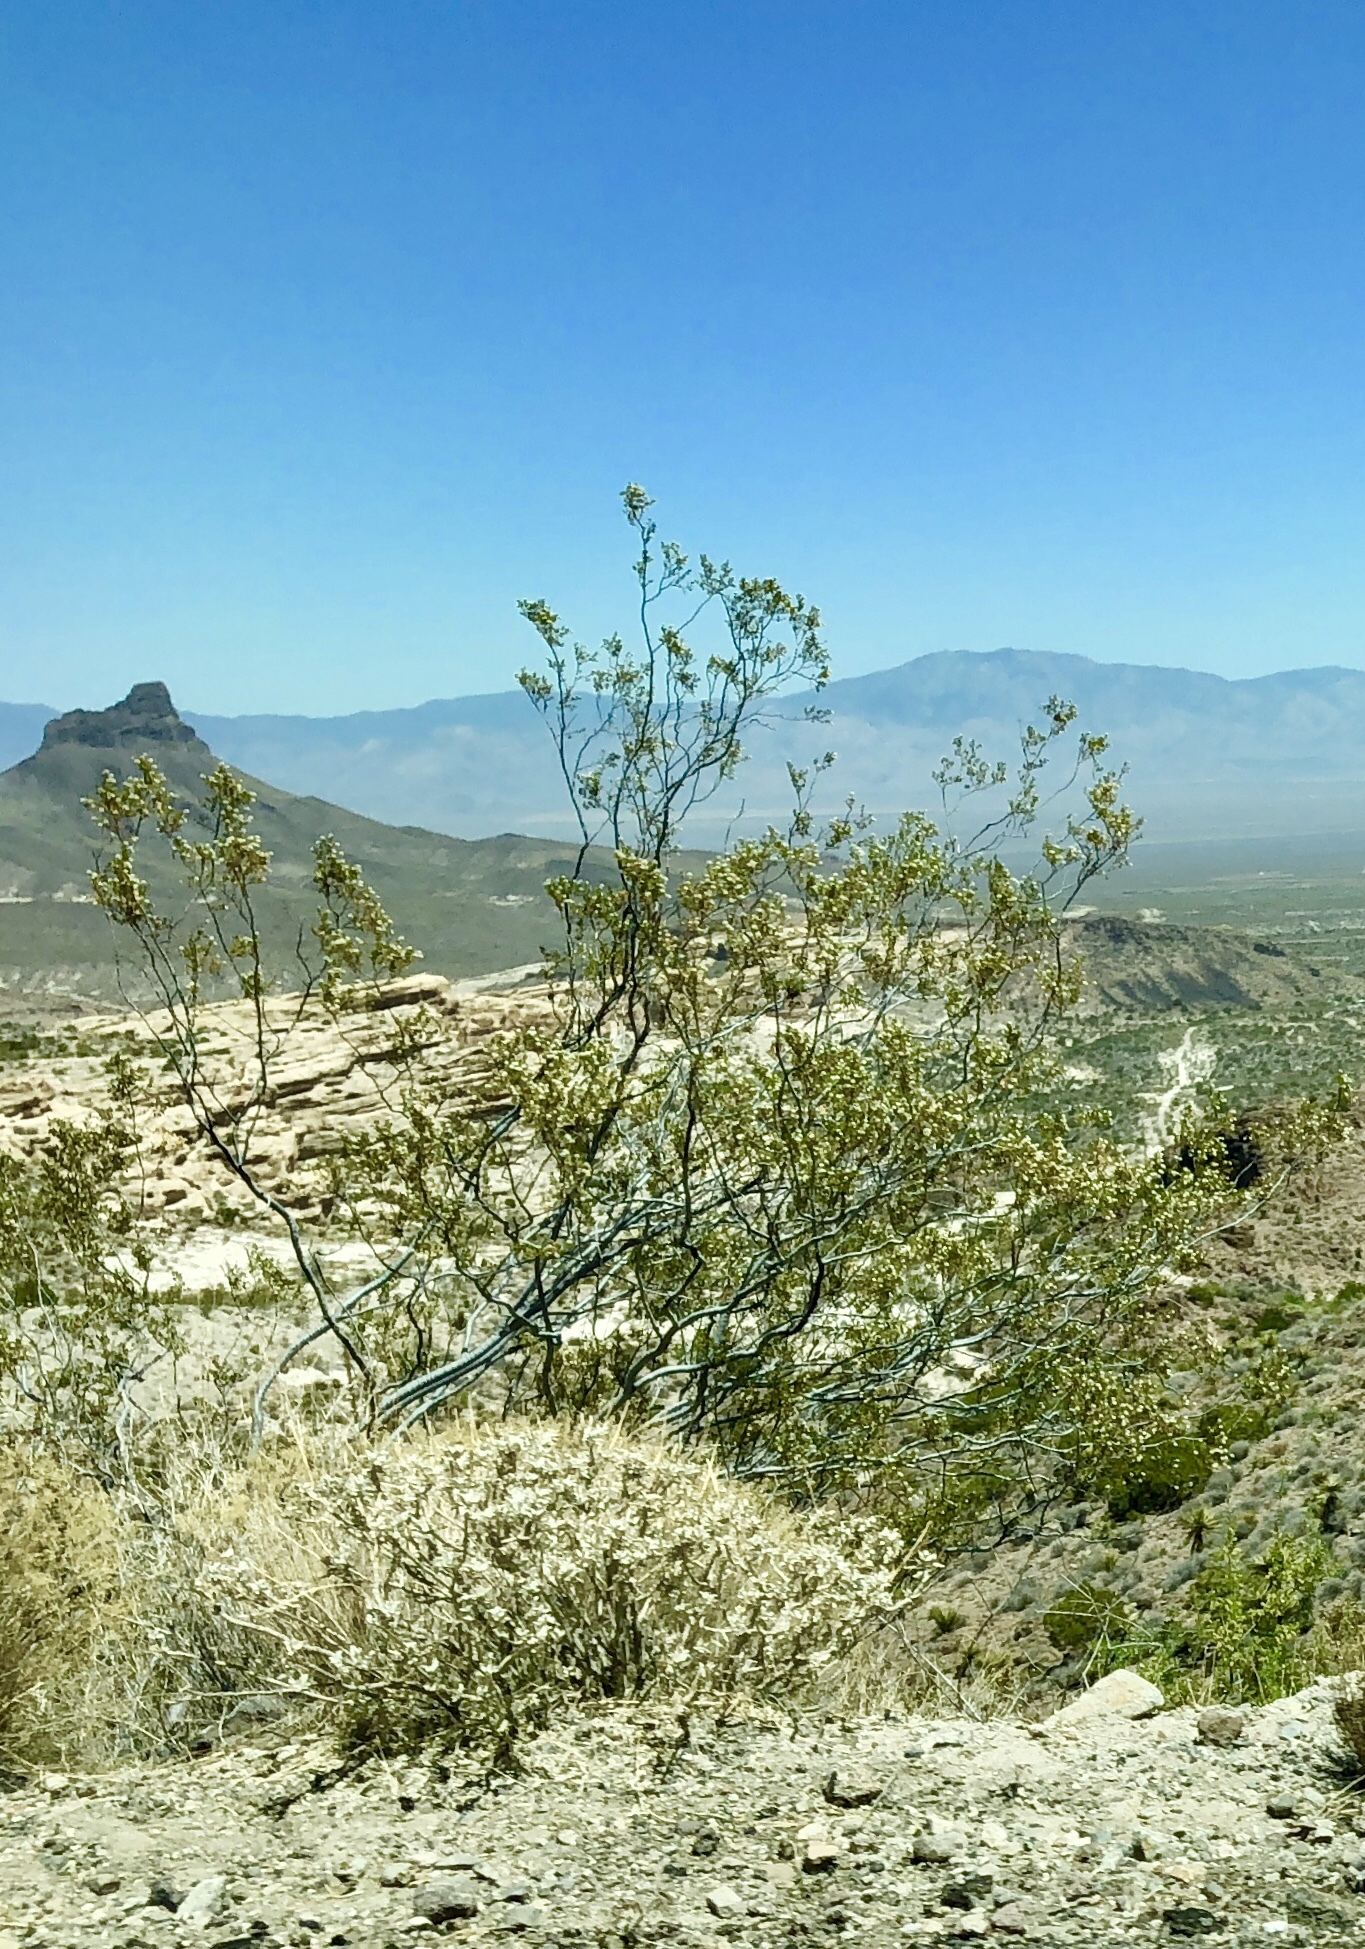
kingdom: Plantae
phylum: Tracheophyta
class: Magnoliopsida
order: Zygophyllales
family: Zygophyllaceae
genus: Larrea
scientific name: Larrea tridentata
